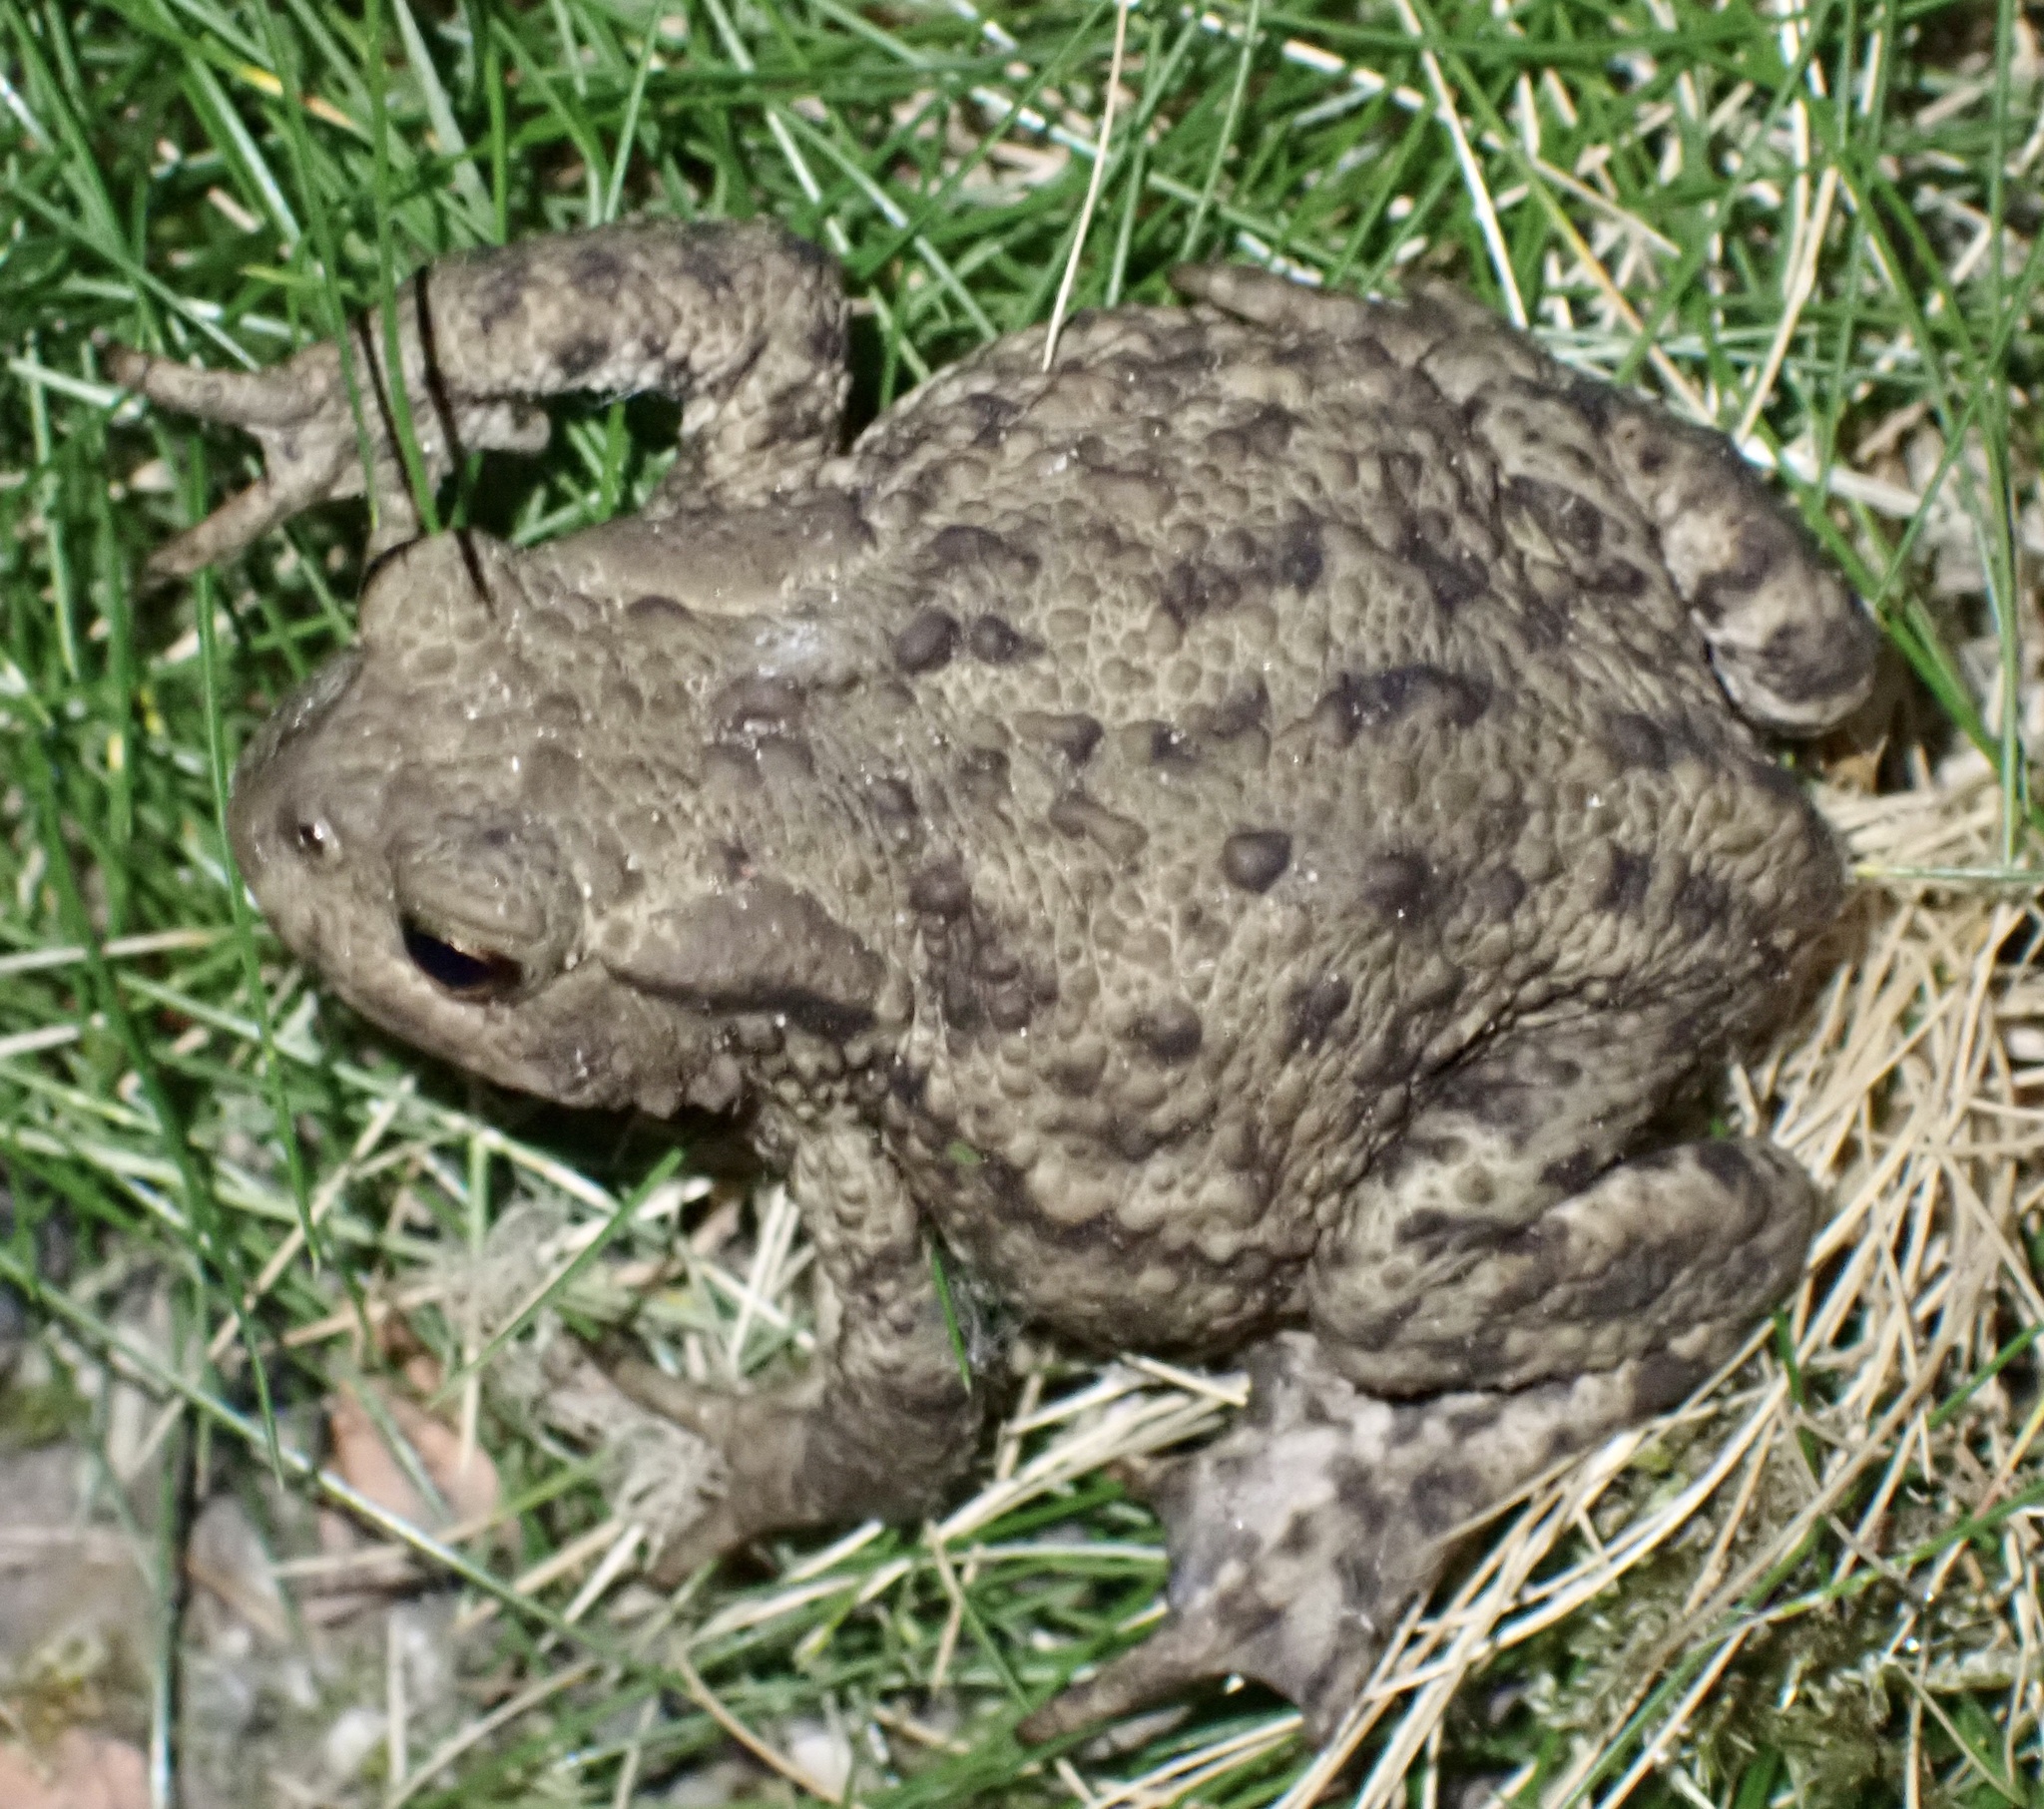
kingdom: Animalia
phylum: Chordata
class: Amphibia
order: Anura
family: Bufonidae
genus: Bufo
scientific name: Bufo bufo
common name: Common toad
